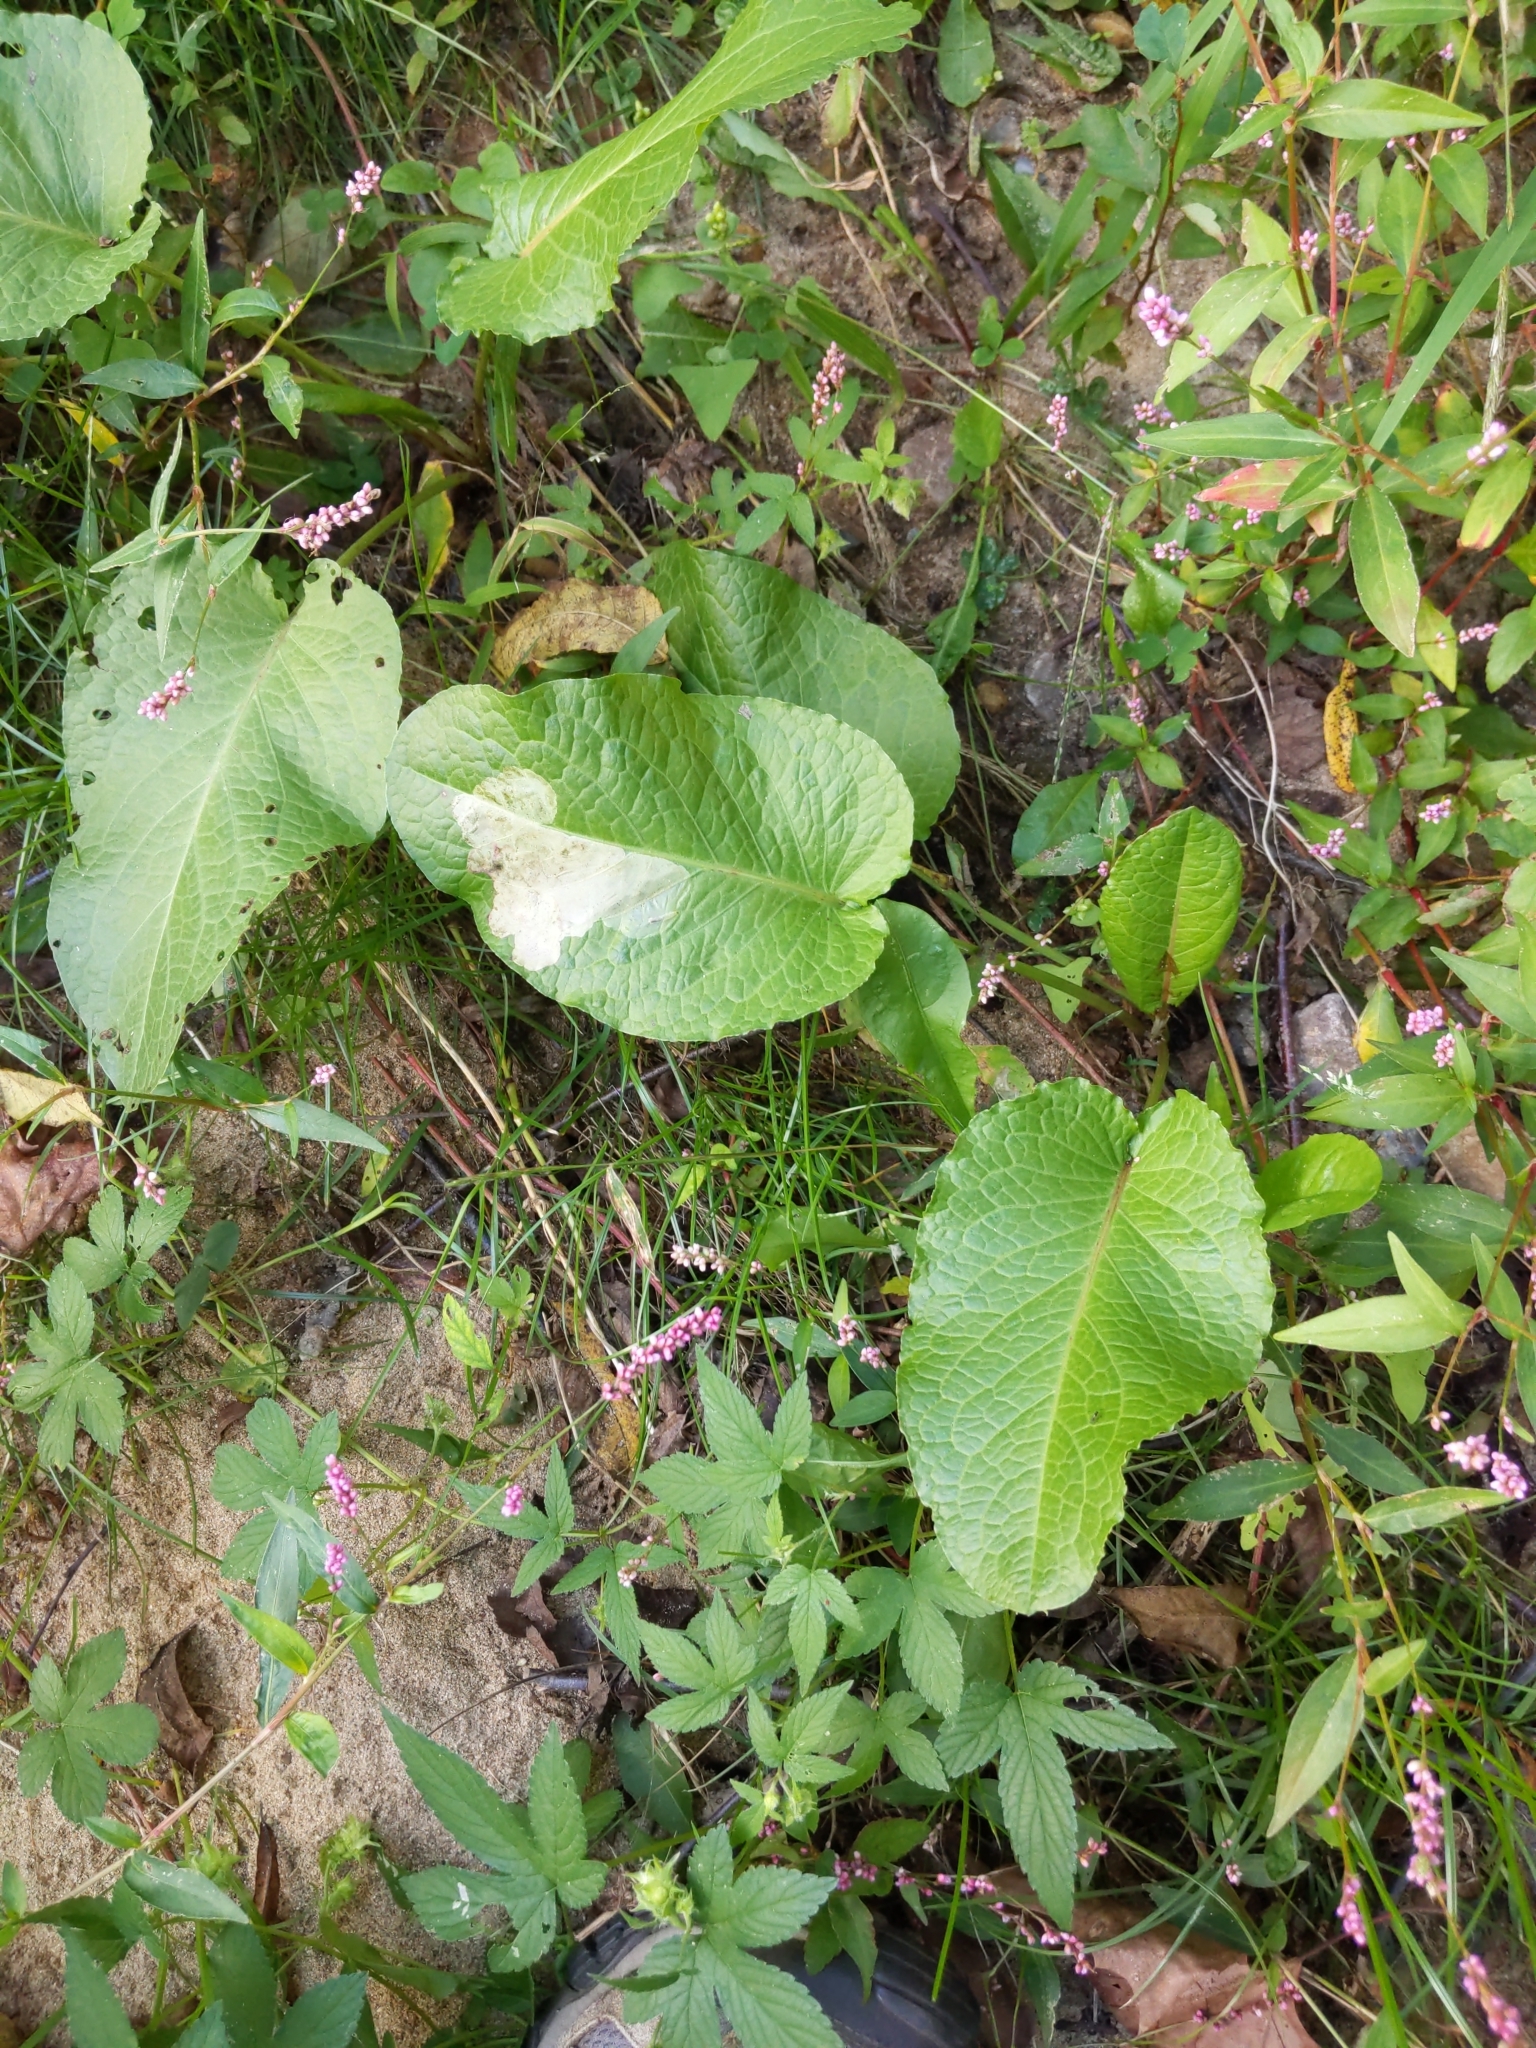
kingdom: Plantae
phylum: Tracheophyta
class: Magnoliopsida
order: Caryophyllales
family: Polygonaceae
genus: Rumex
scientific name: Rumex obtusifolius
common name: Bitter dock
